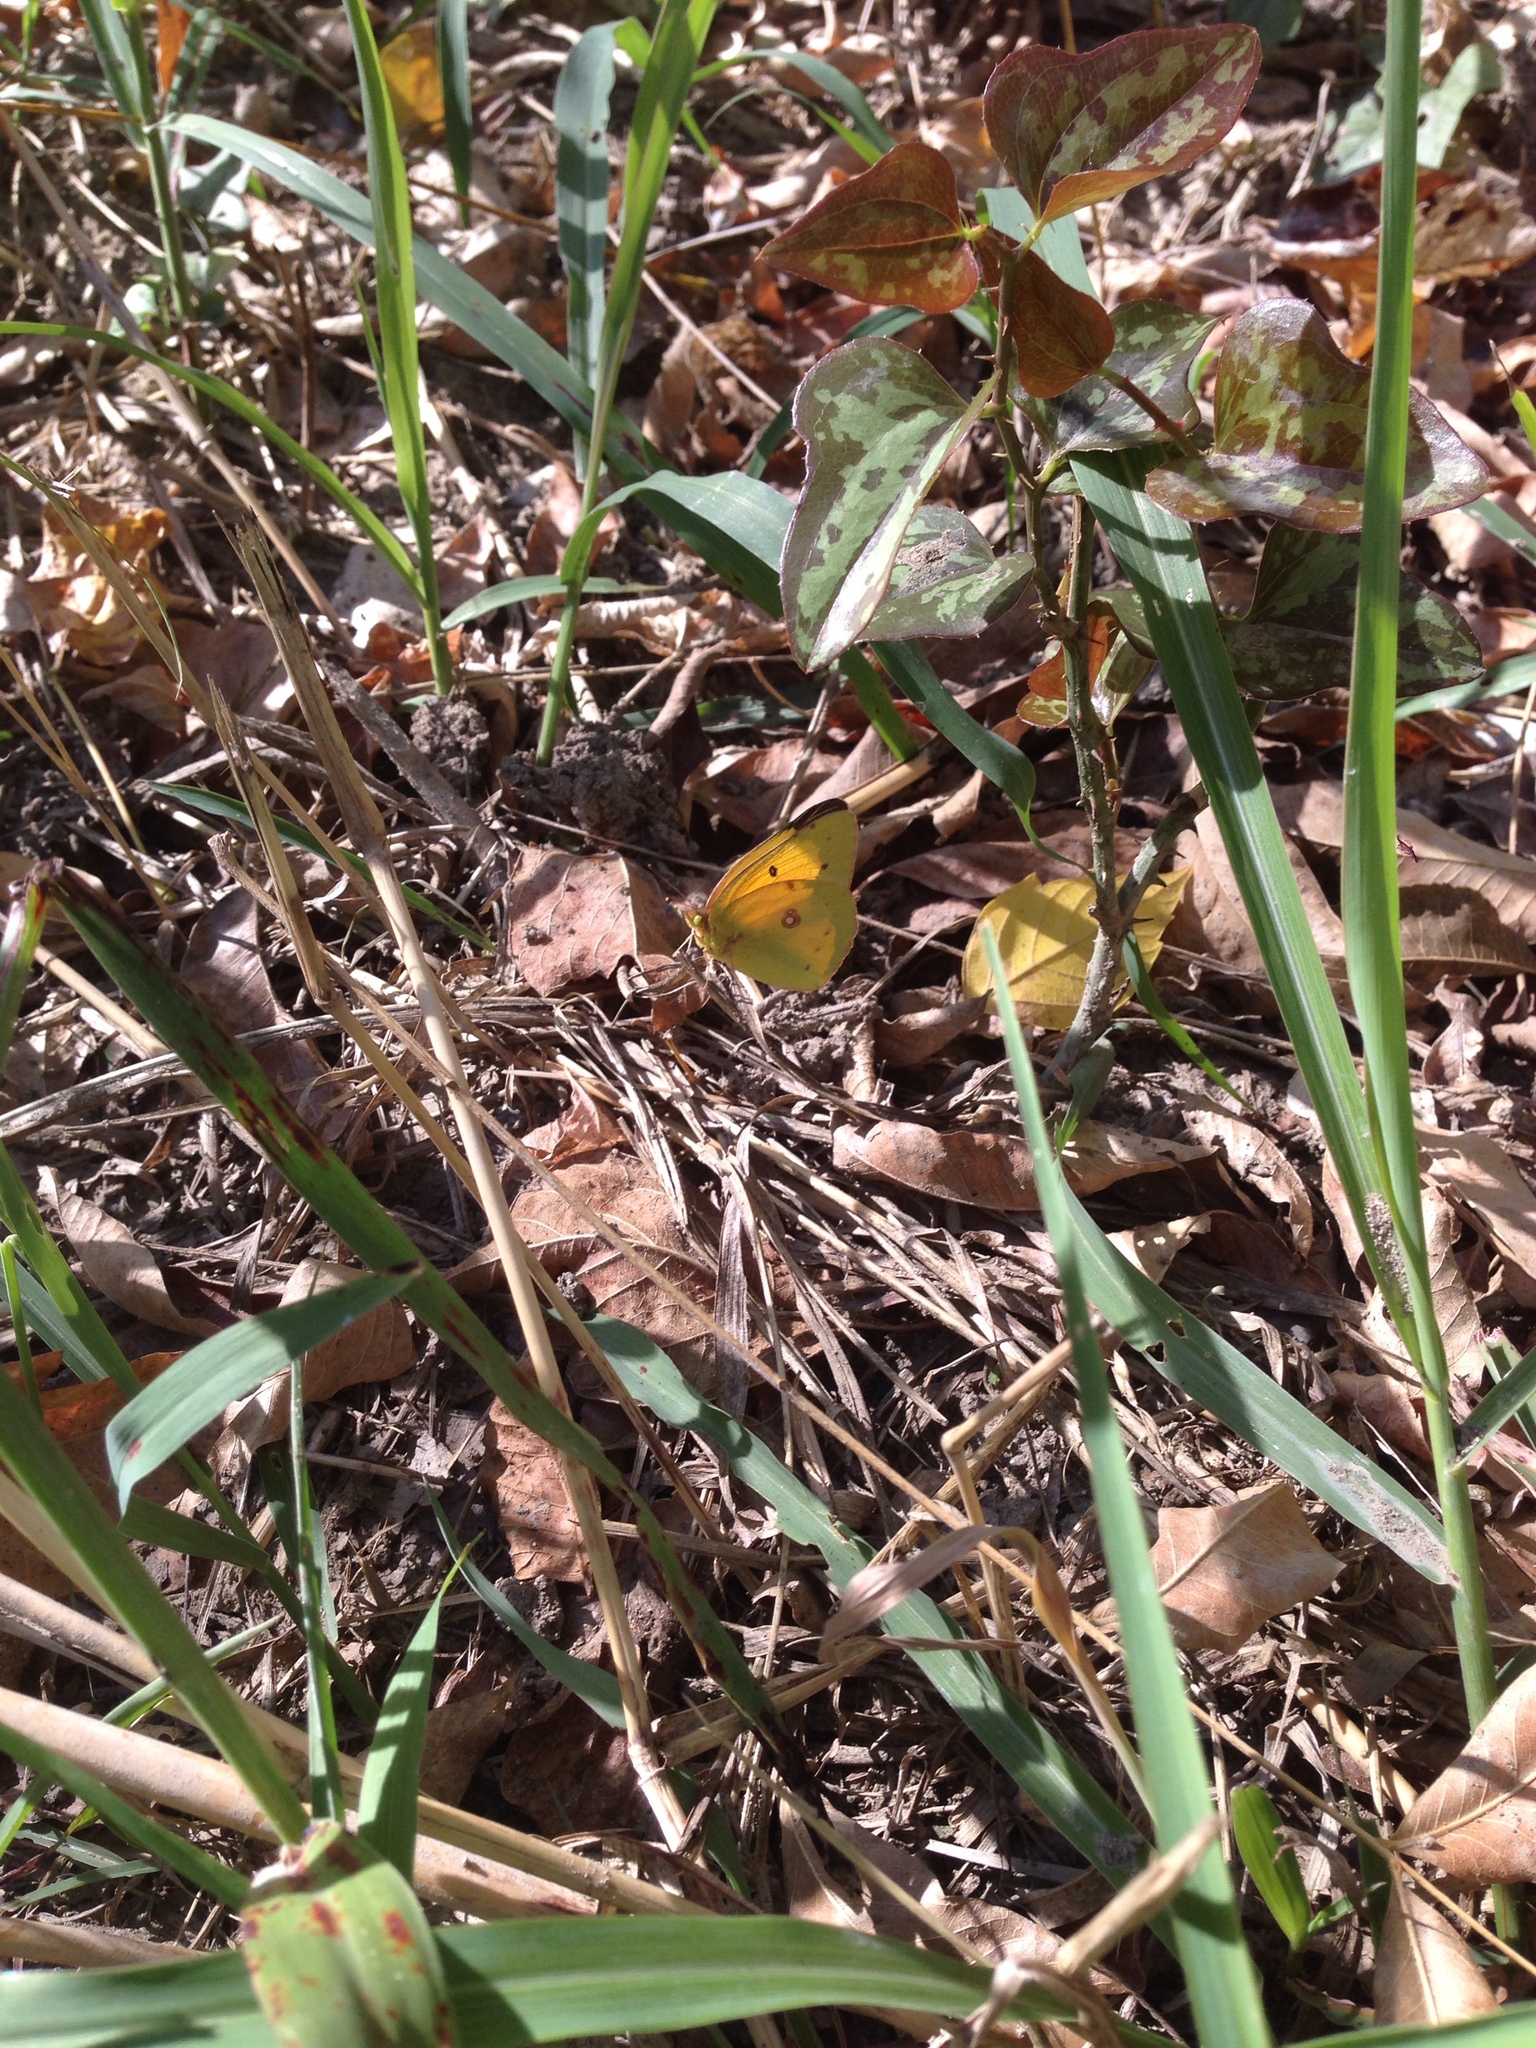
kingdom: Animalia
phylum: Arthropoda
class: Insecta
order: Lepidoptera
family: Pieridae
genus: Colias
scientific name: Colias eurytheme
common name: Alfalfa butterfly
